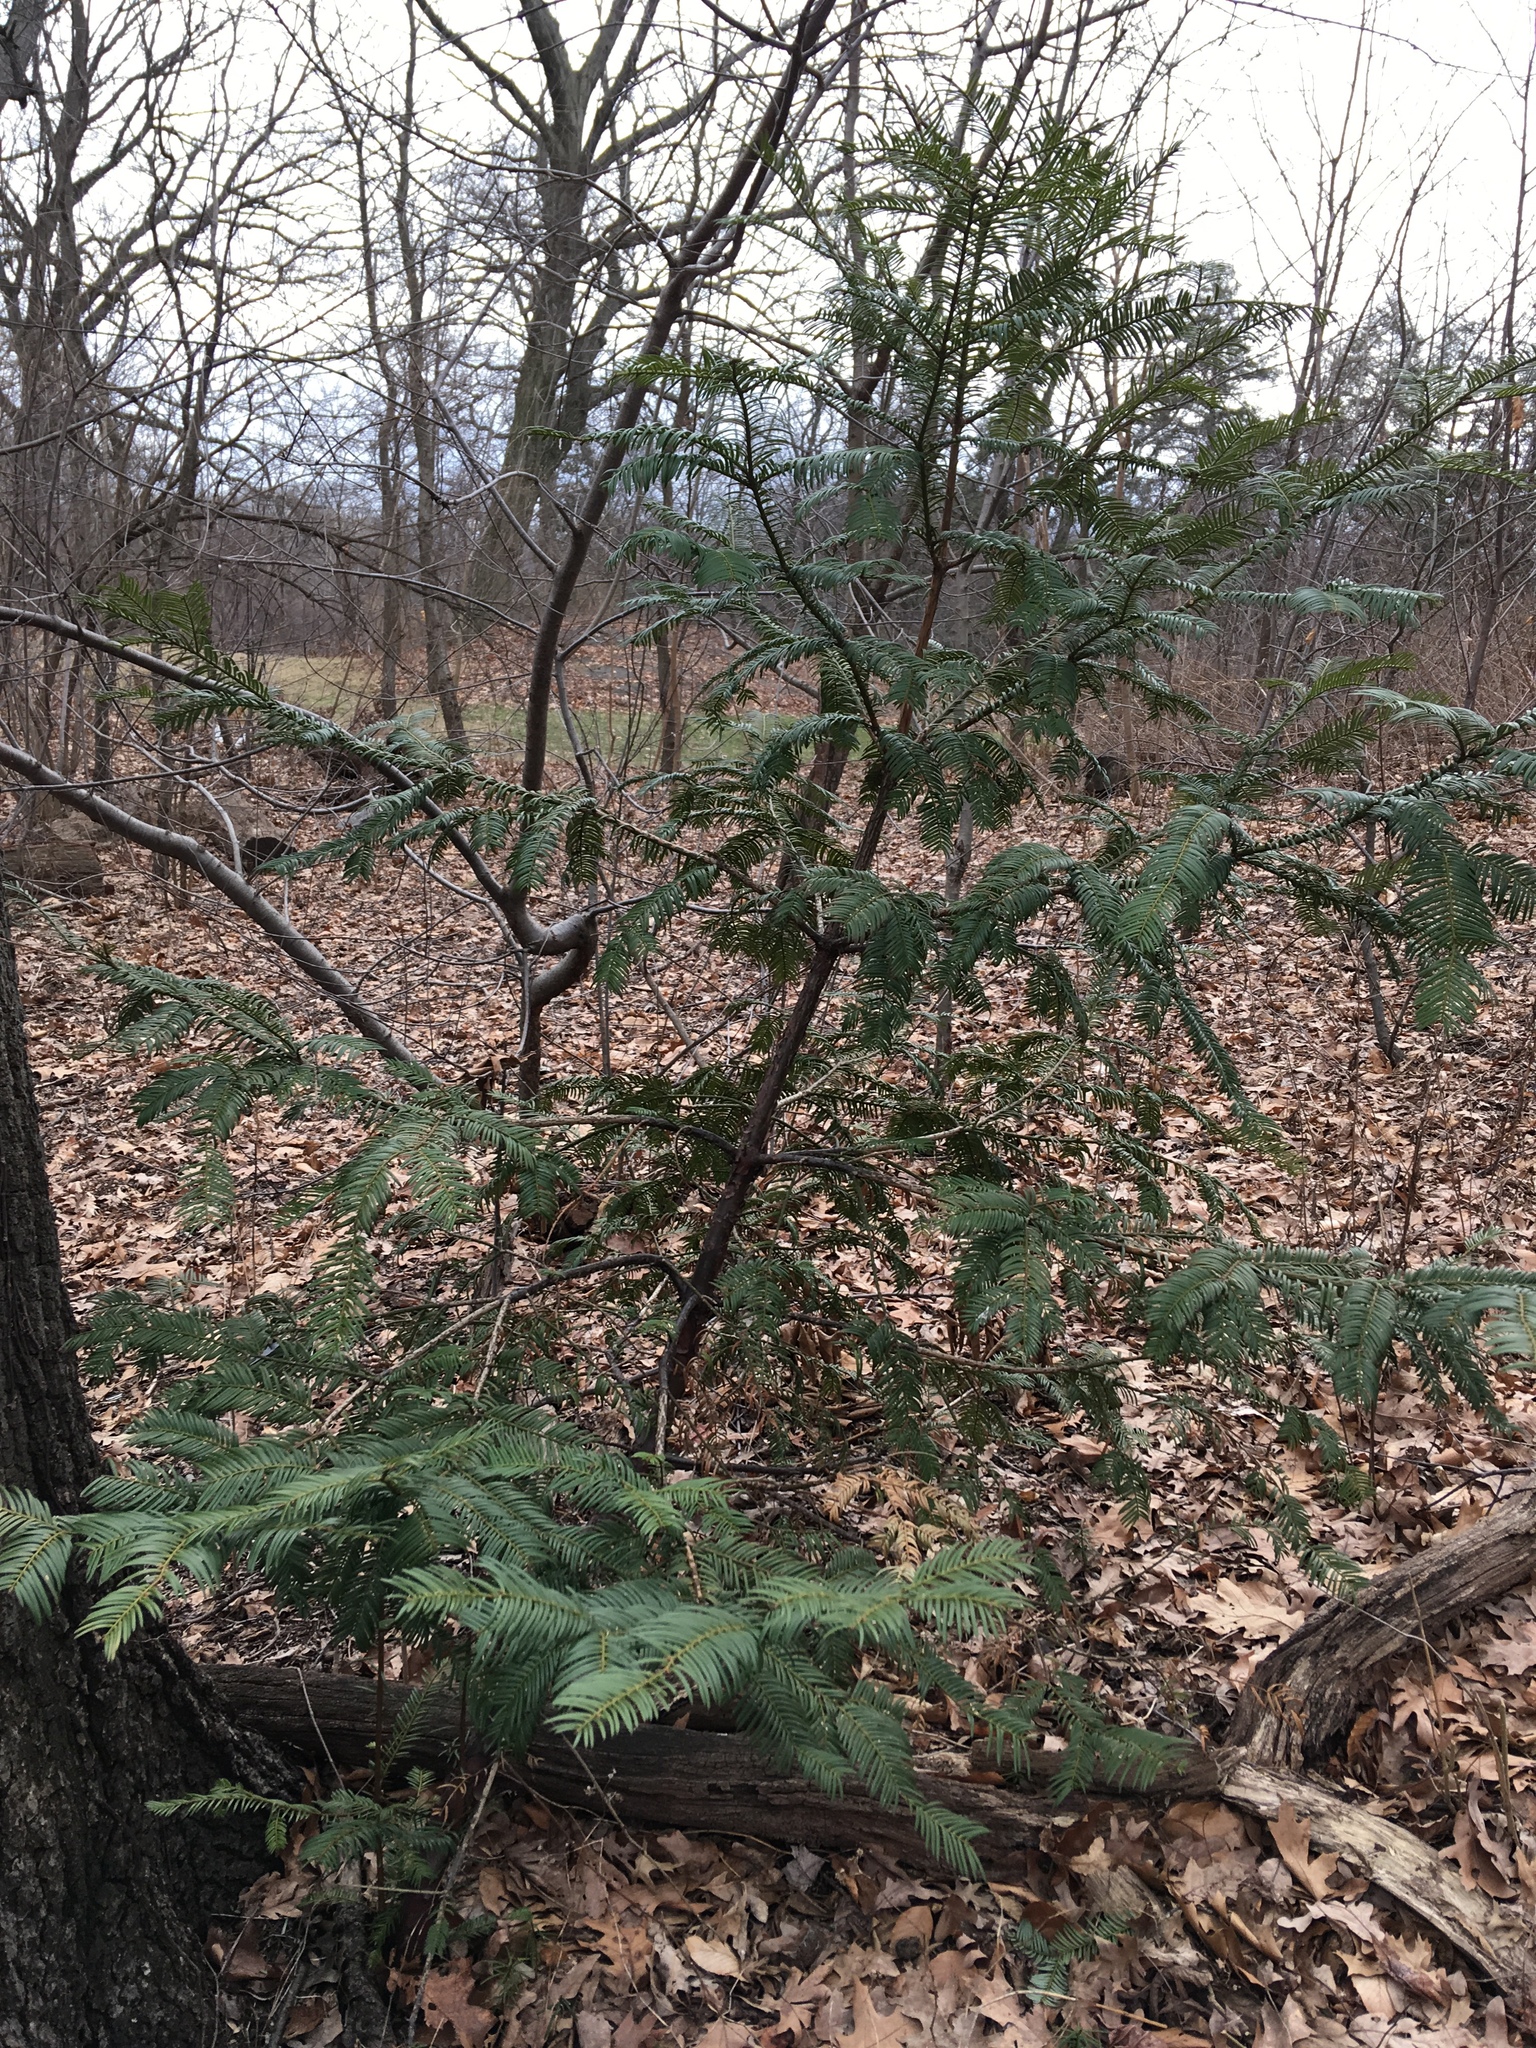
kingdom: Plantae
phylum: Tracheophyta
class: Pinopsida
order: Pinales
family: Cephalotaxaceae
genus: Cephalotaxus
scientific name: Cephalotaxus harringtonia
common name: Japanese plum-yew
